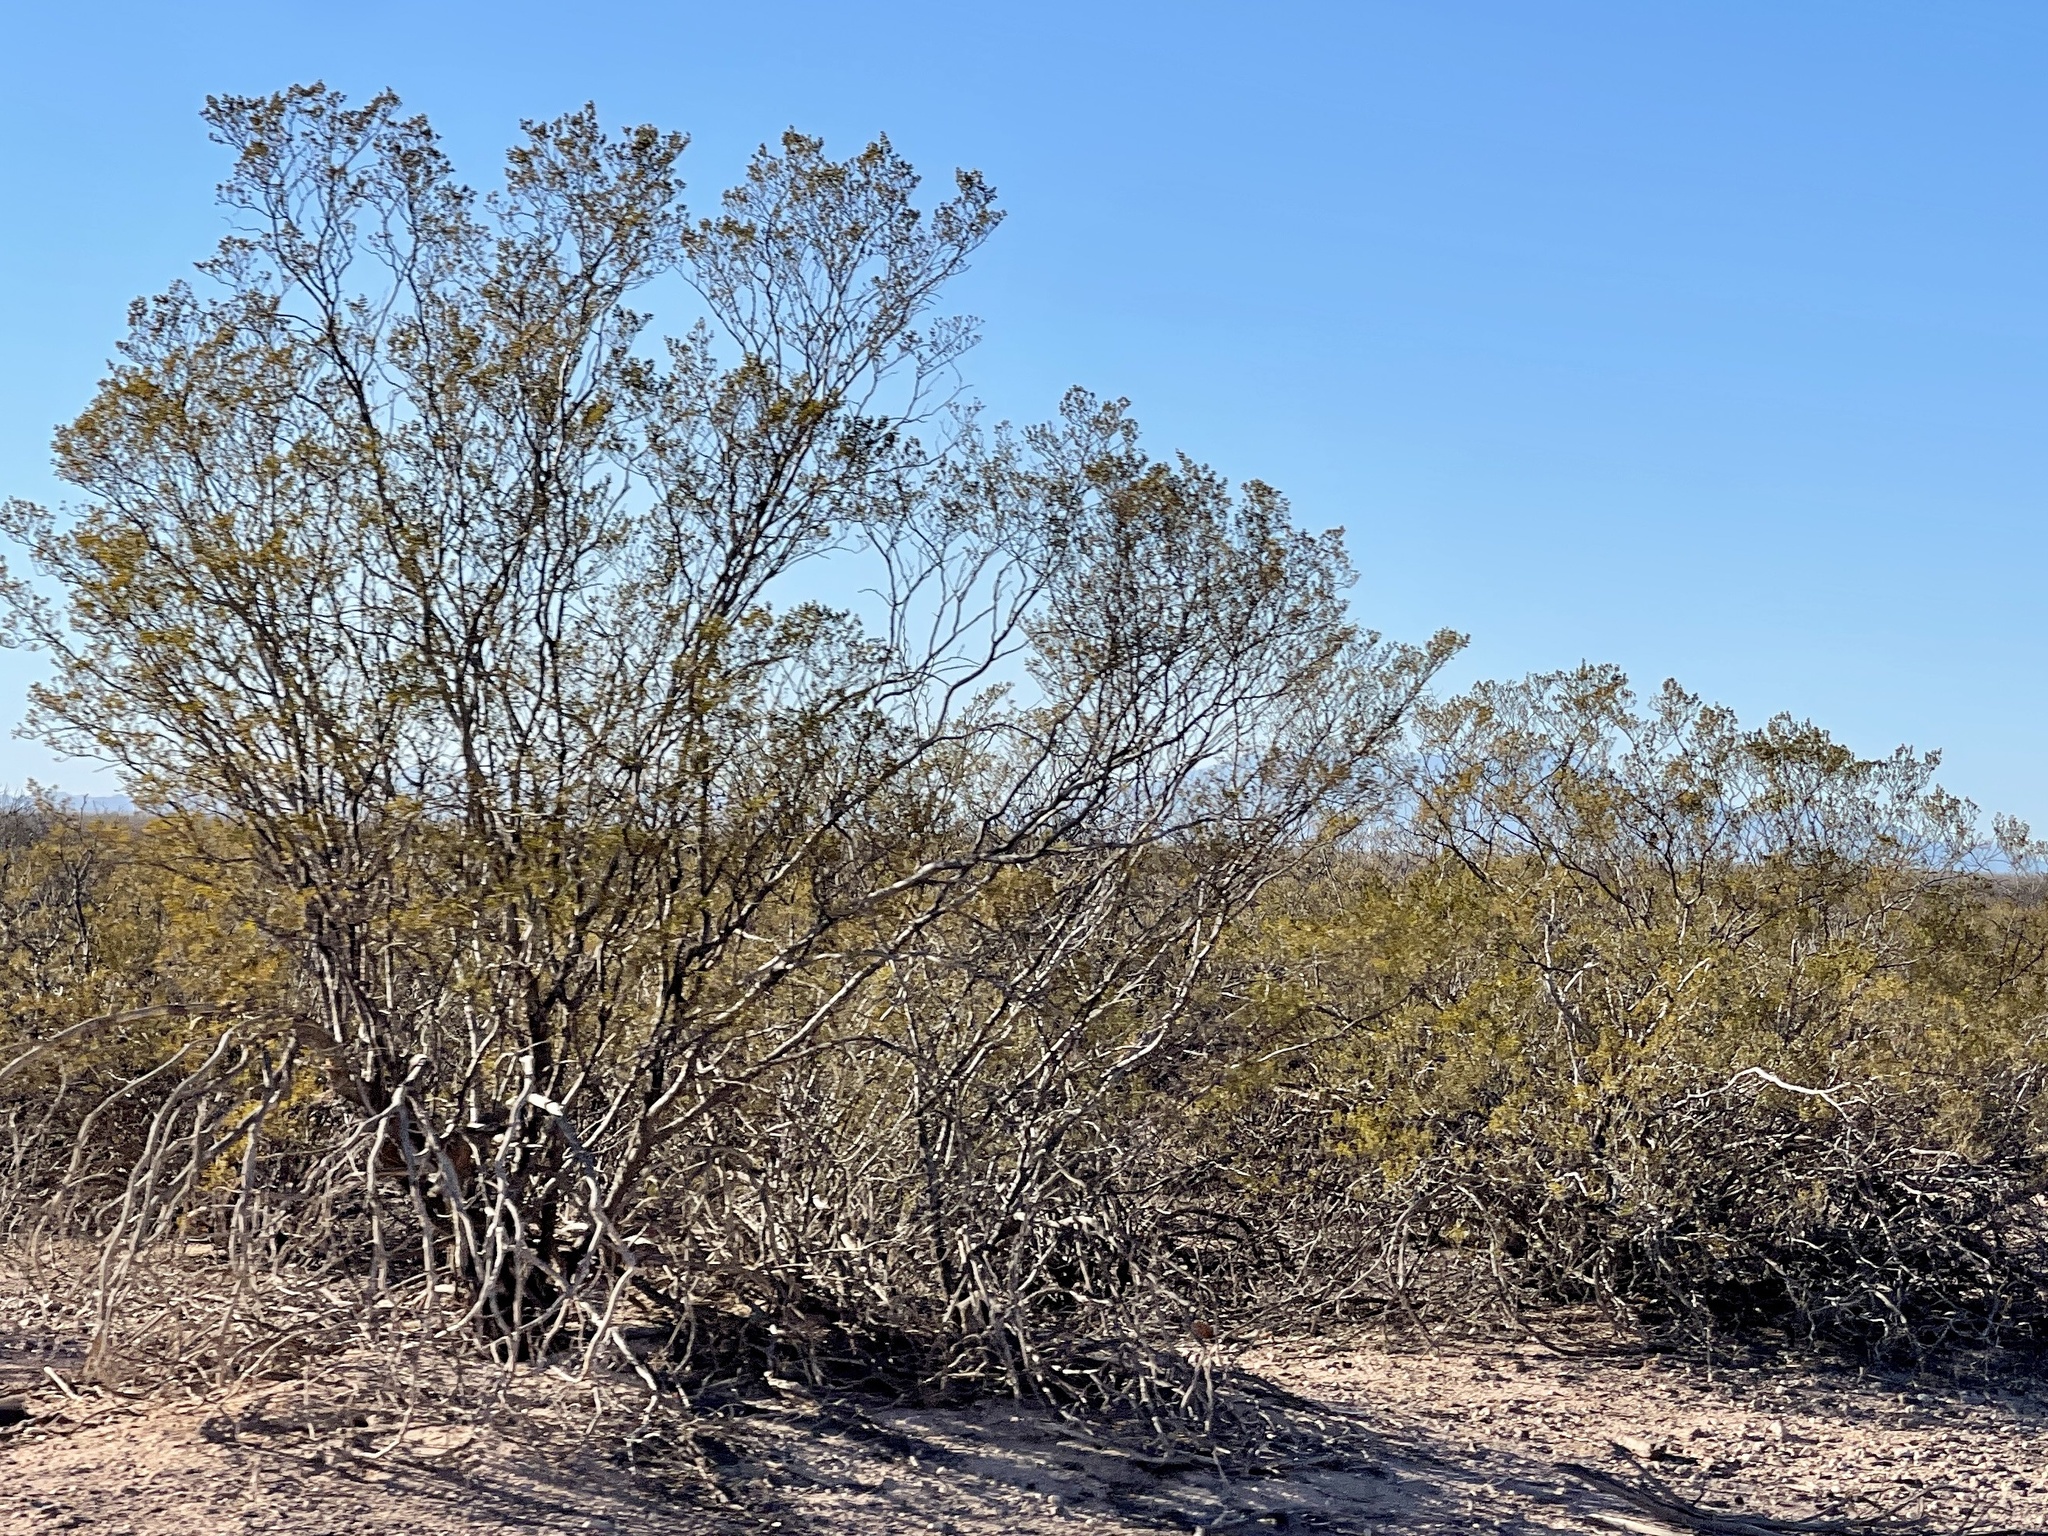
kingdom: Plantae
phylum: Tracheophyta
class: Magnoliopsida
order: Zygophyllales
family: Zygophyllaceae
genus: Larrea
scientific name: Larrea tridentata
